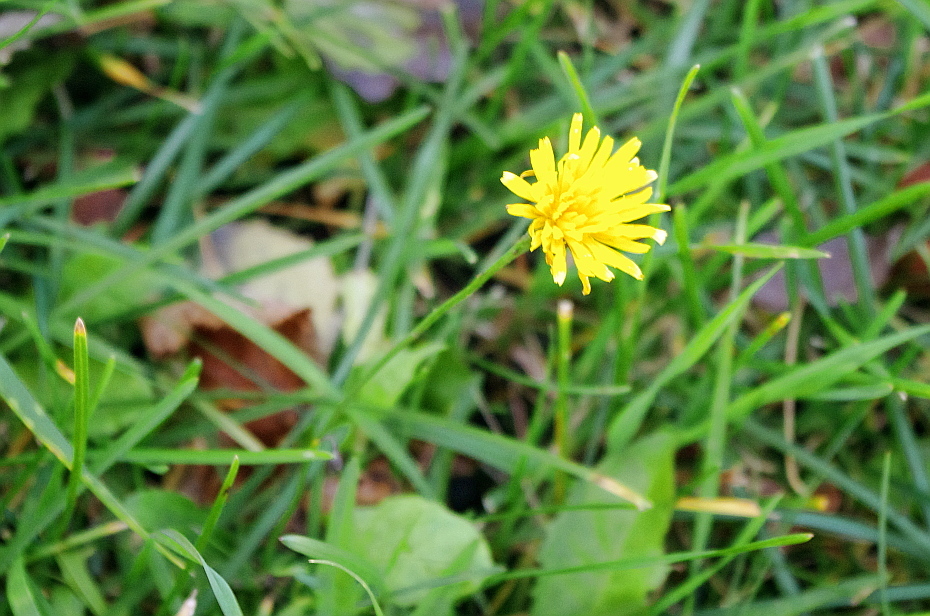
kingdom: Plantae
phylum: Tracheophyta
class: Magnoliopsida
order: Asterales
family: Asteraceae
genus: Scorzoneroides
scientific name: Scorzoneroides autumnalis
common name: Autumn hawkbit
